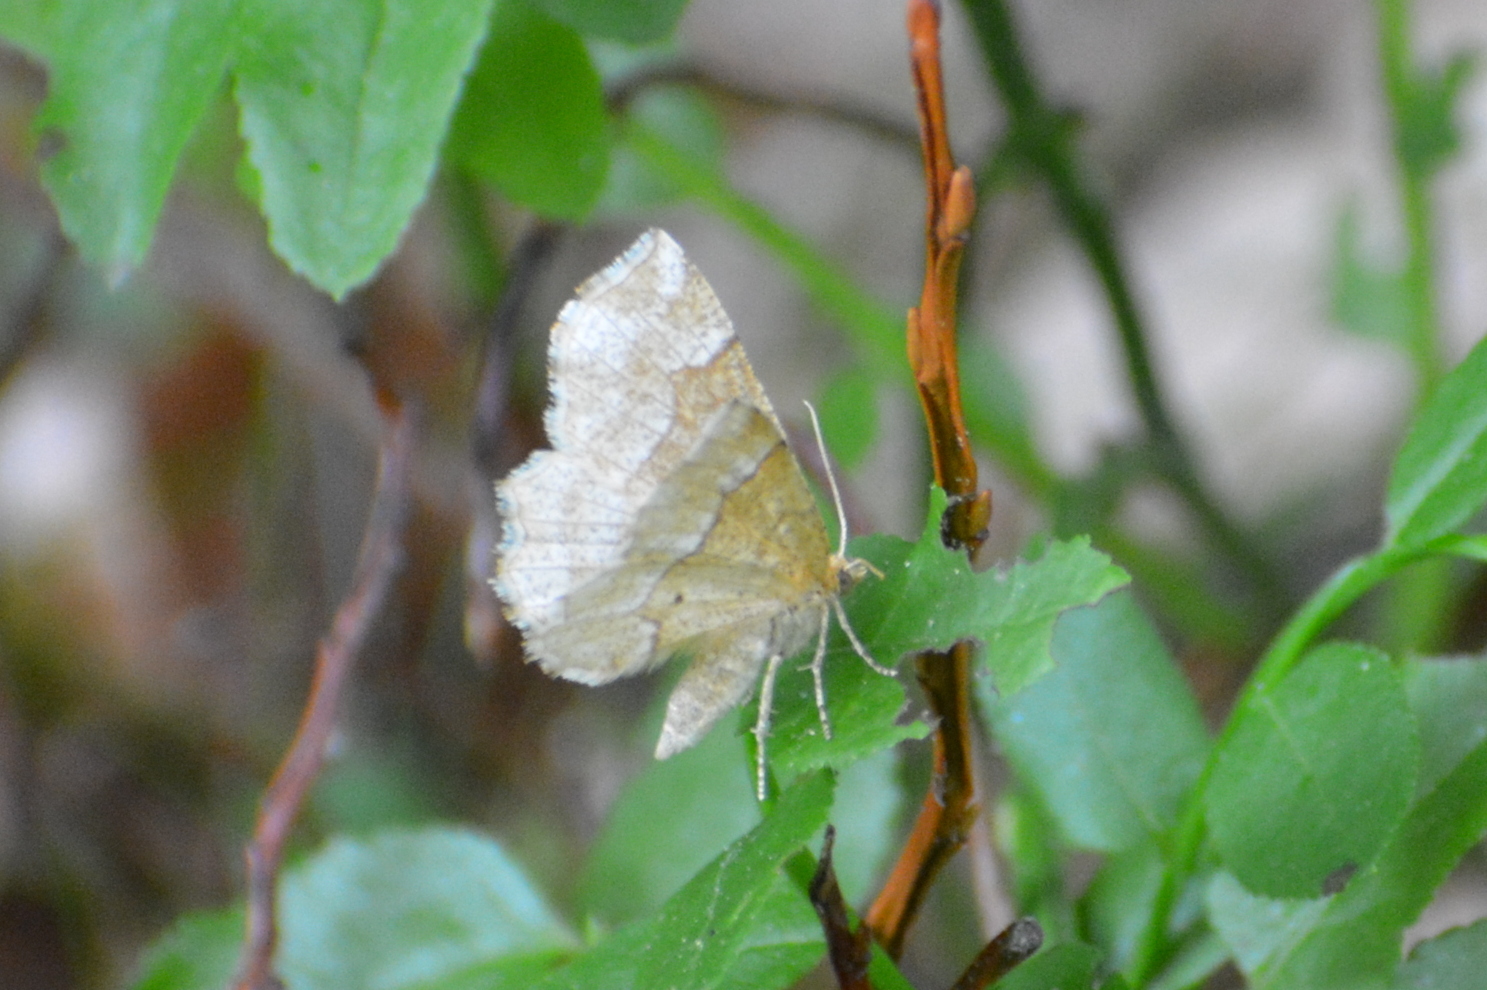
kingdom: Animalia
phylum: Arthropoda
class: Insecta
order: Lepidoptera
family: Geometridae
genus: Cepphis
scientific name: Cepphis advenaria
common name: Little thorn
